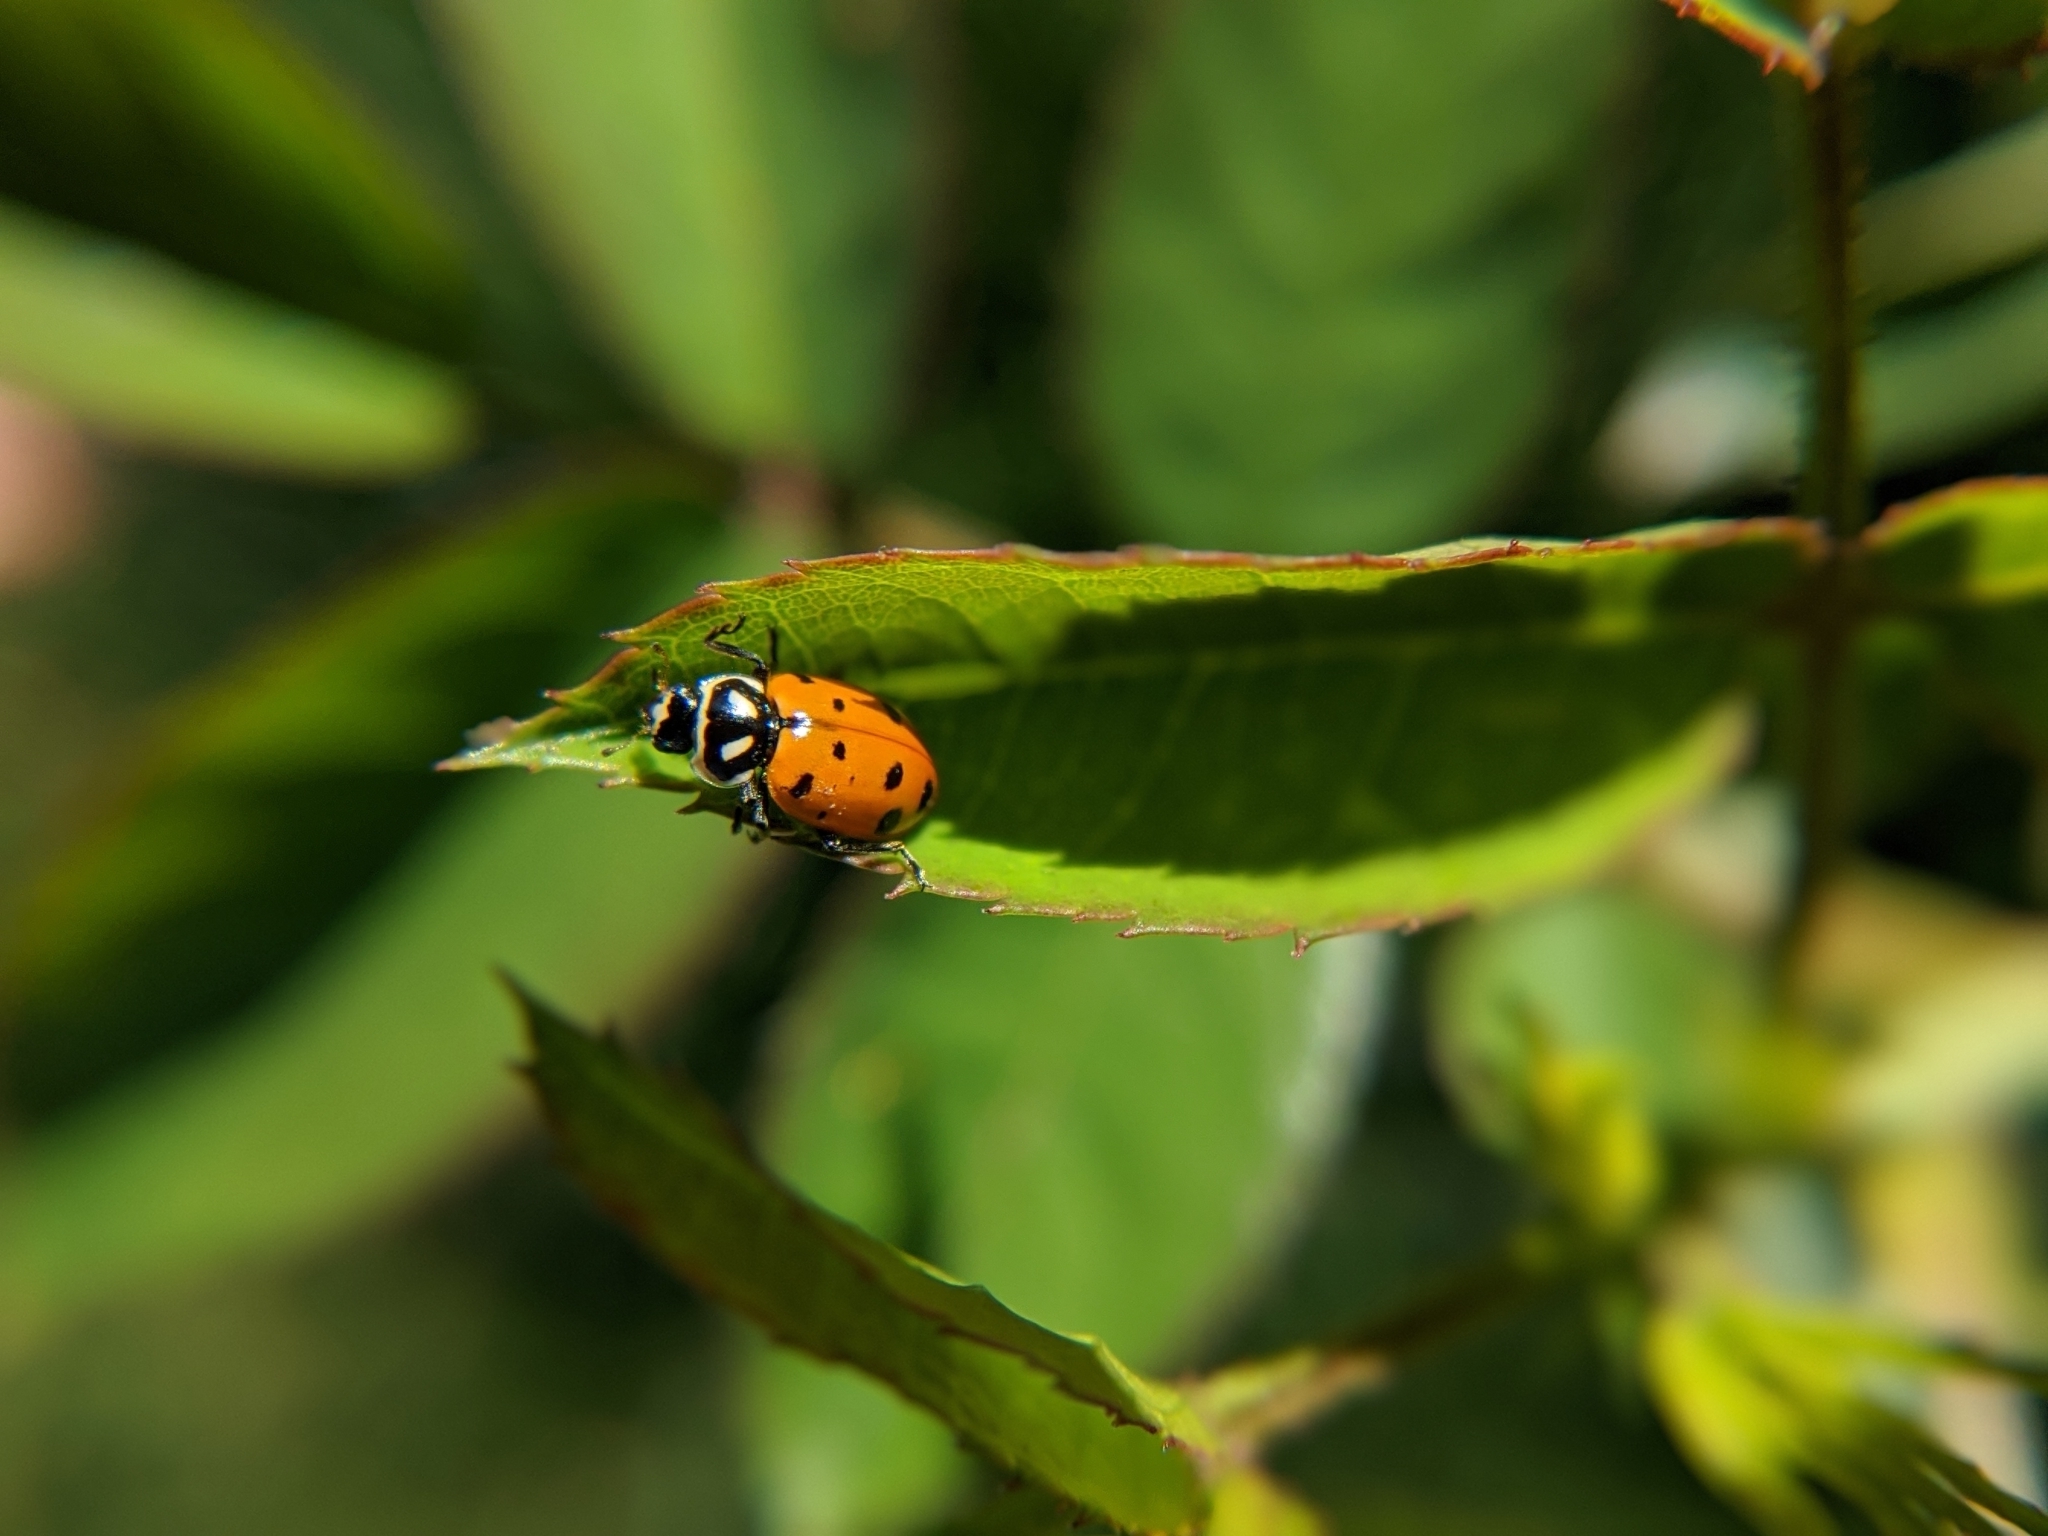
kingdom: Animalia
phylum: Arthropoda
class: Insecta
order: Coleoptera
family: Coccinellidae
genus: Hippodamia
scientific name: Hippodamia convergens
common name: Convergent lady beetle
